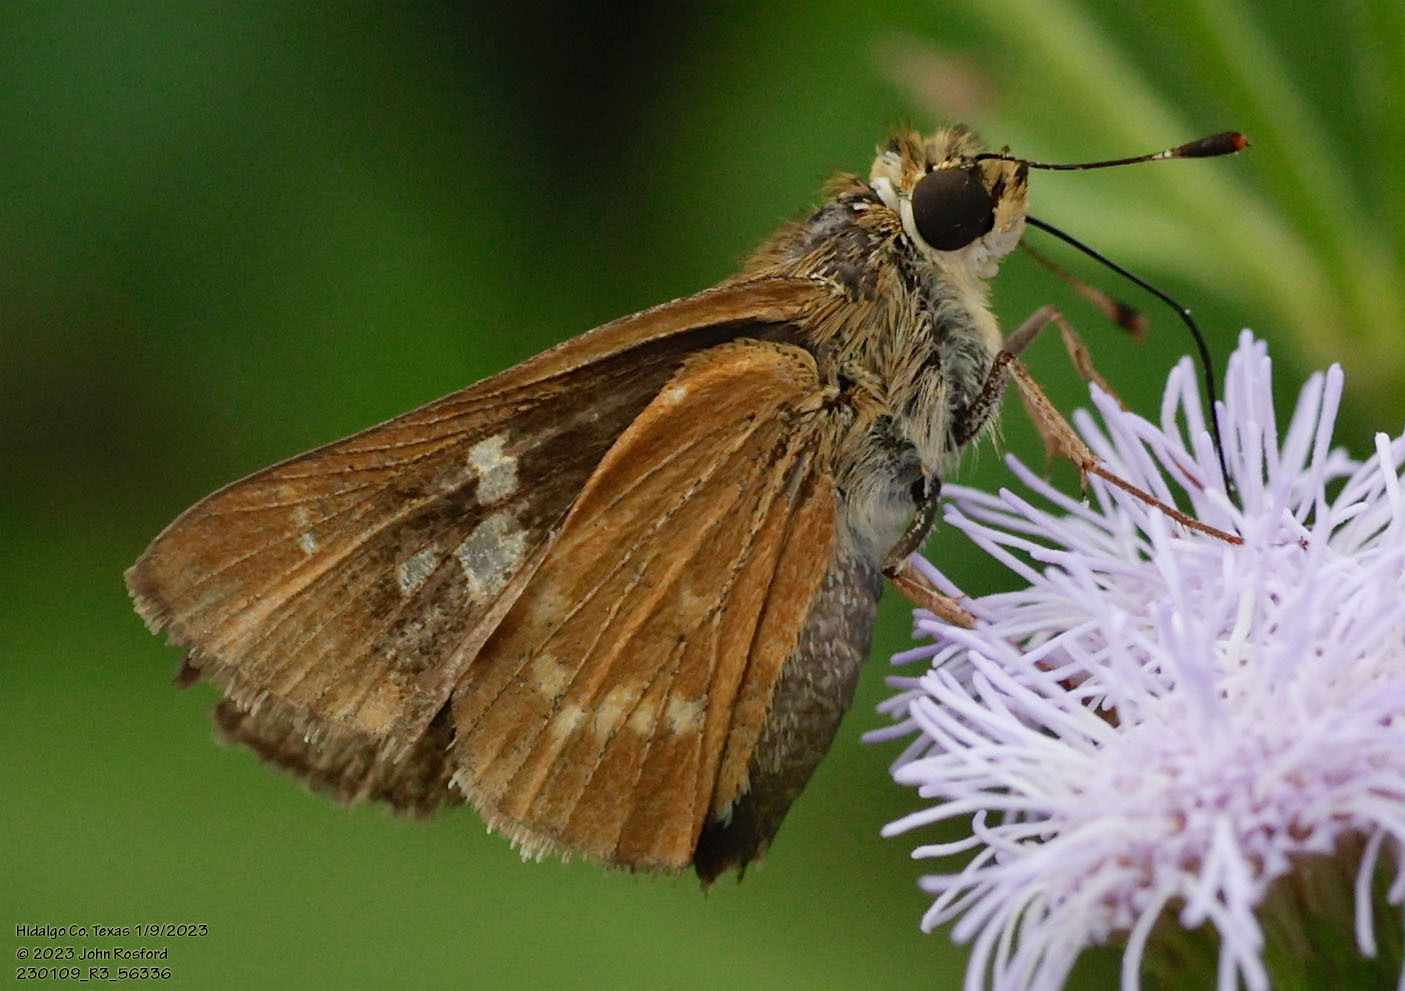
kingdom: Animalia
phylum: Arthropoda
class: Insecta
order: Lepidoptera
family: Hesperiidae
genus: Mellana
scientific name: Mellana eulogius
